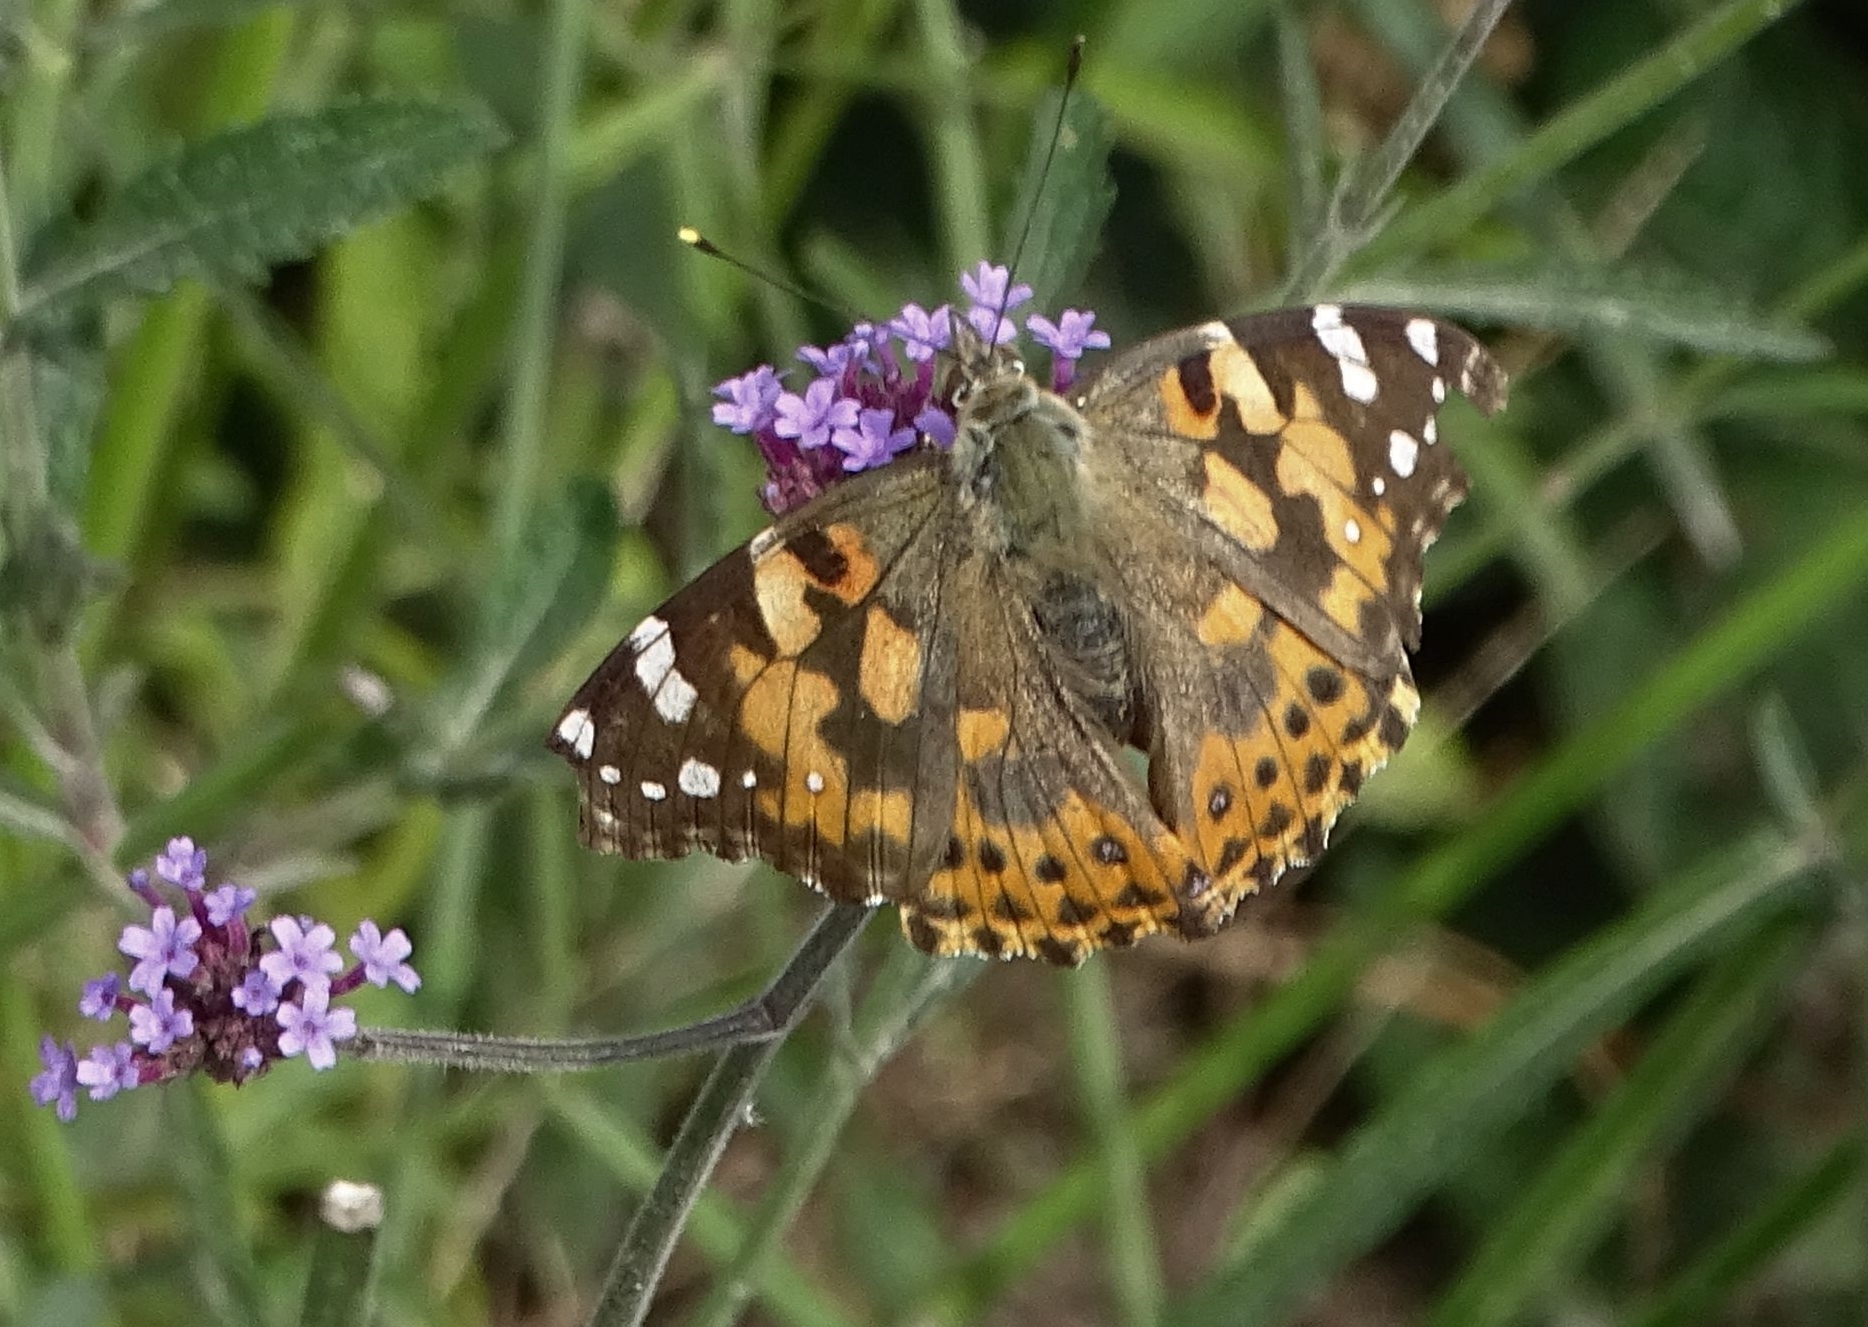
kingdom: Animalia
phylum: Arthropoda
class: Insecta
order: Lepidoptera
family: Nymphalidae
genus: Vanessa
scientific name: Vanessa cardui
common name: Painted lady
